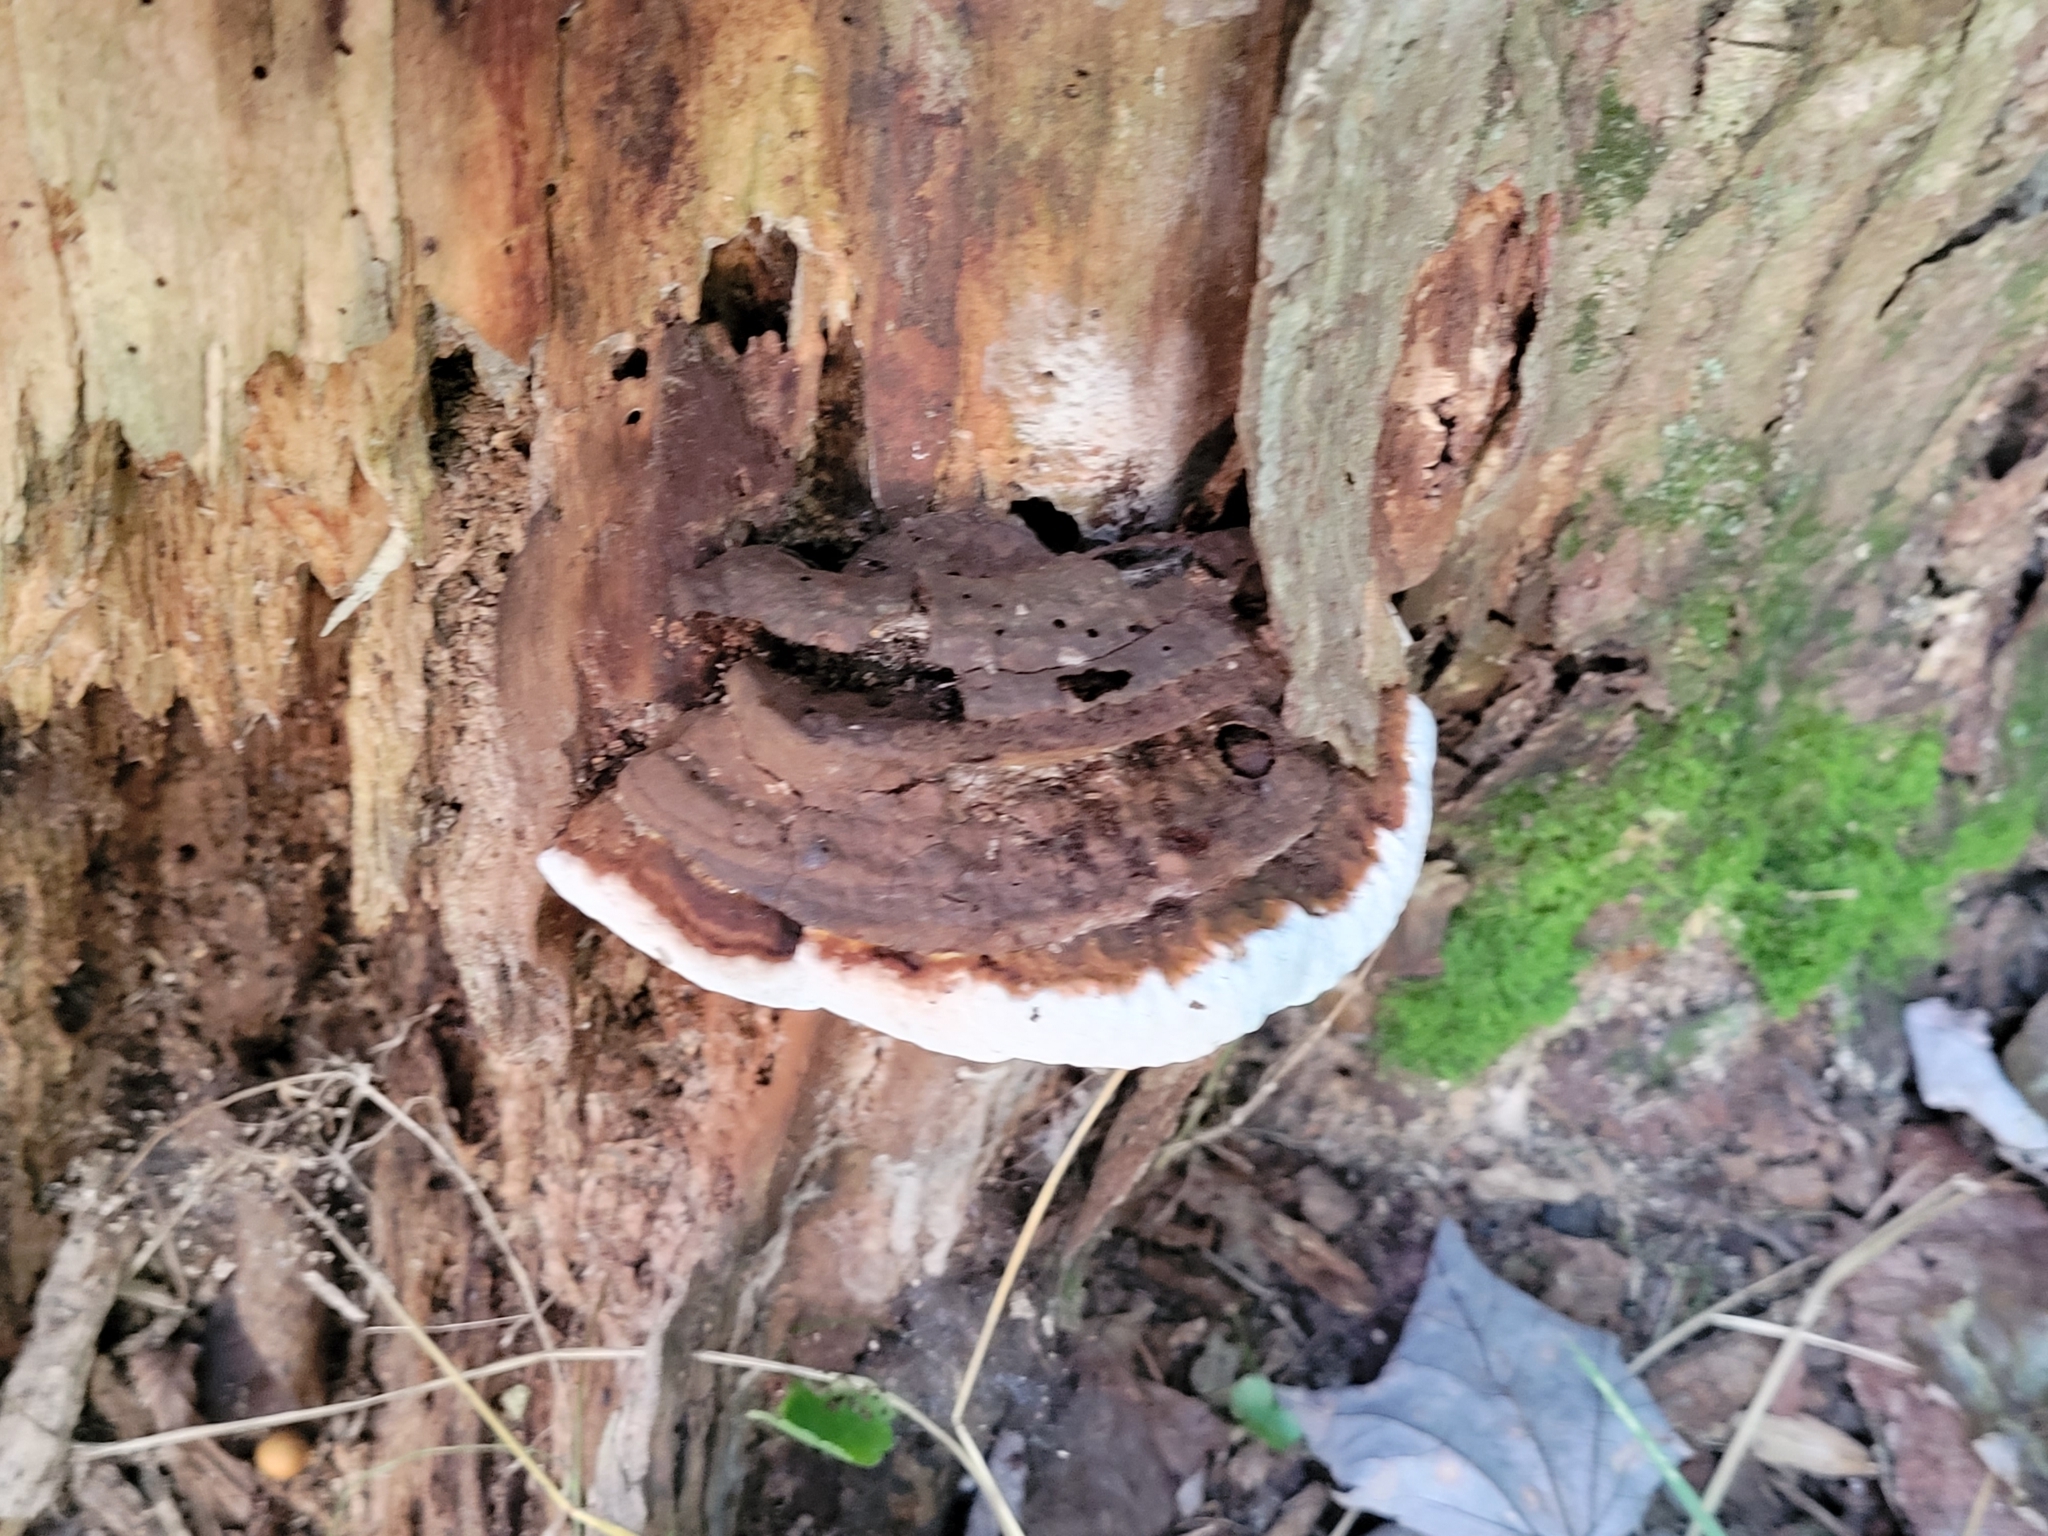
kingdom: Fungi
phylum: Basidiomycota
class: Agaricomycetes
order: Polyporales
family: Polyporaceae
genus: Ganoderma
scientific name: Ganoderma lobatum
